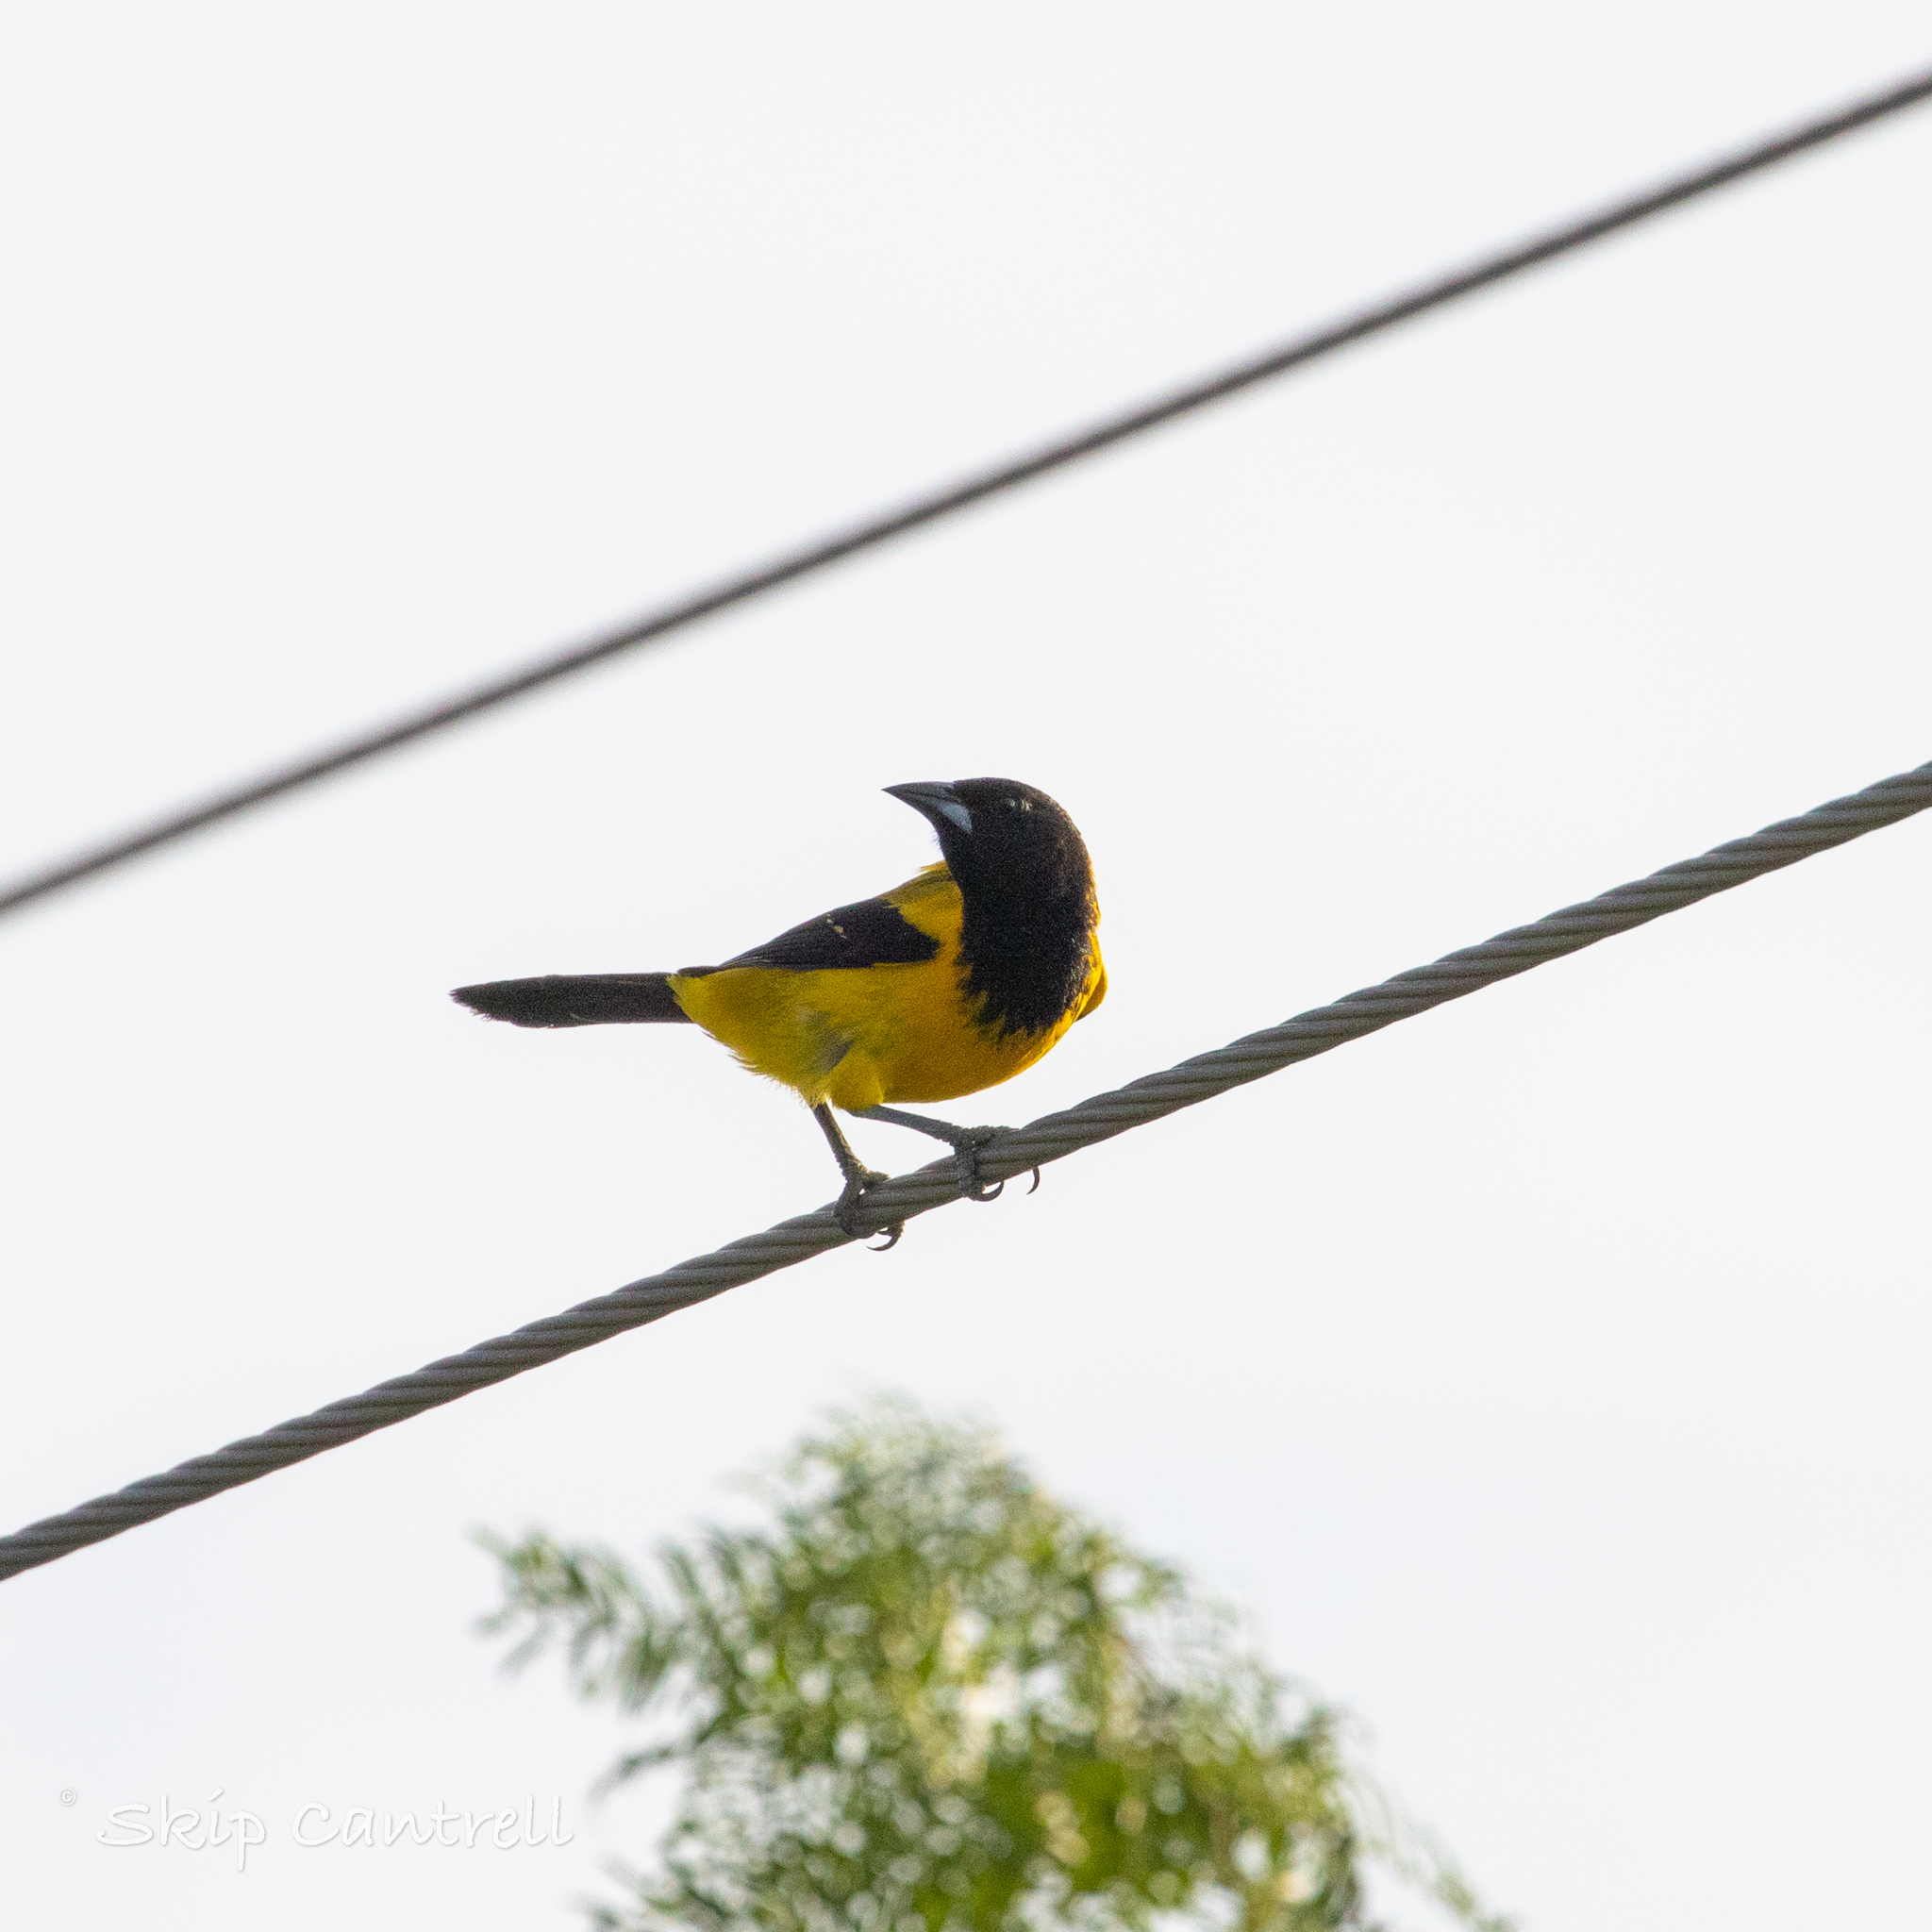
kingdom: Animalia
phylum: Chordata
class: Aves
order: Passeriformes
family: Icteridae
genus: Icterus
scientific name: Icterus graduacauda
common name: Audubon's oriole
